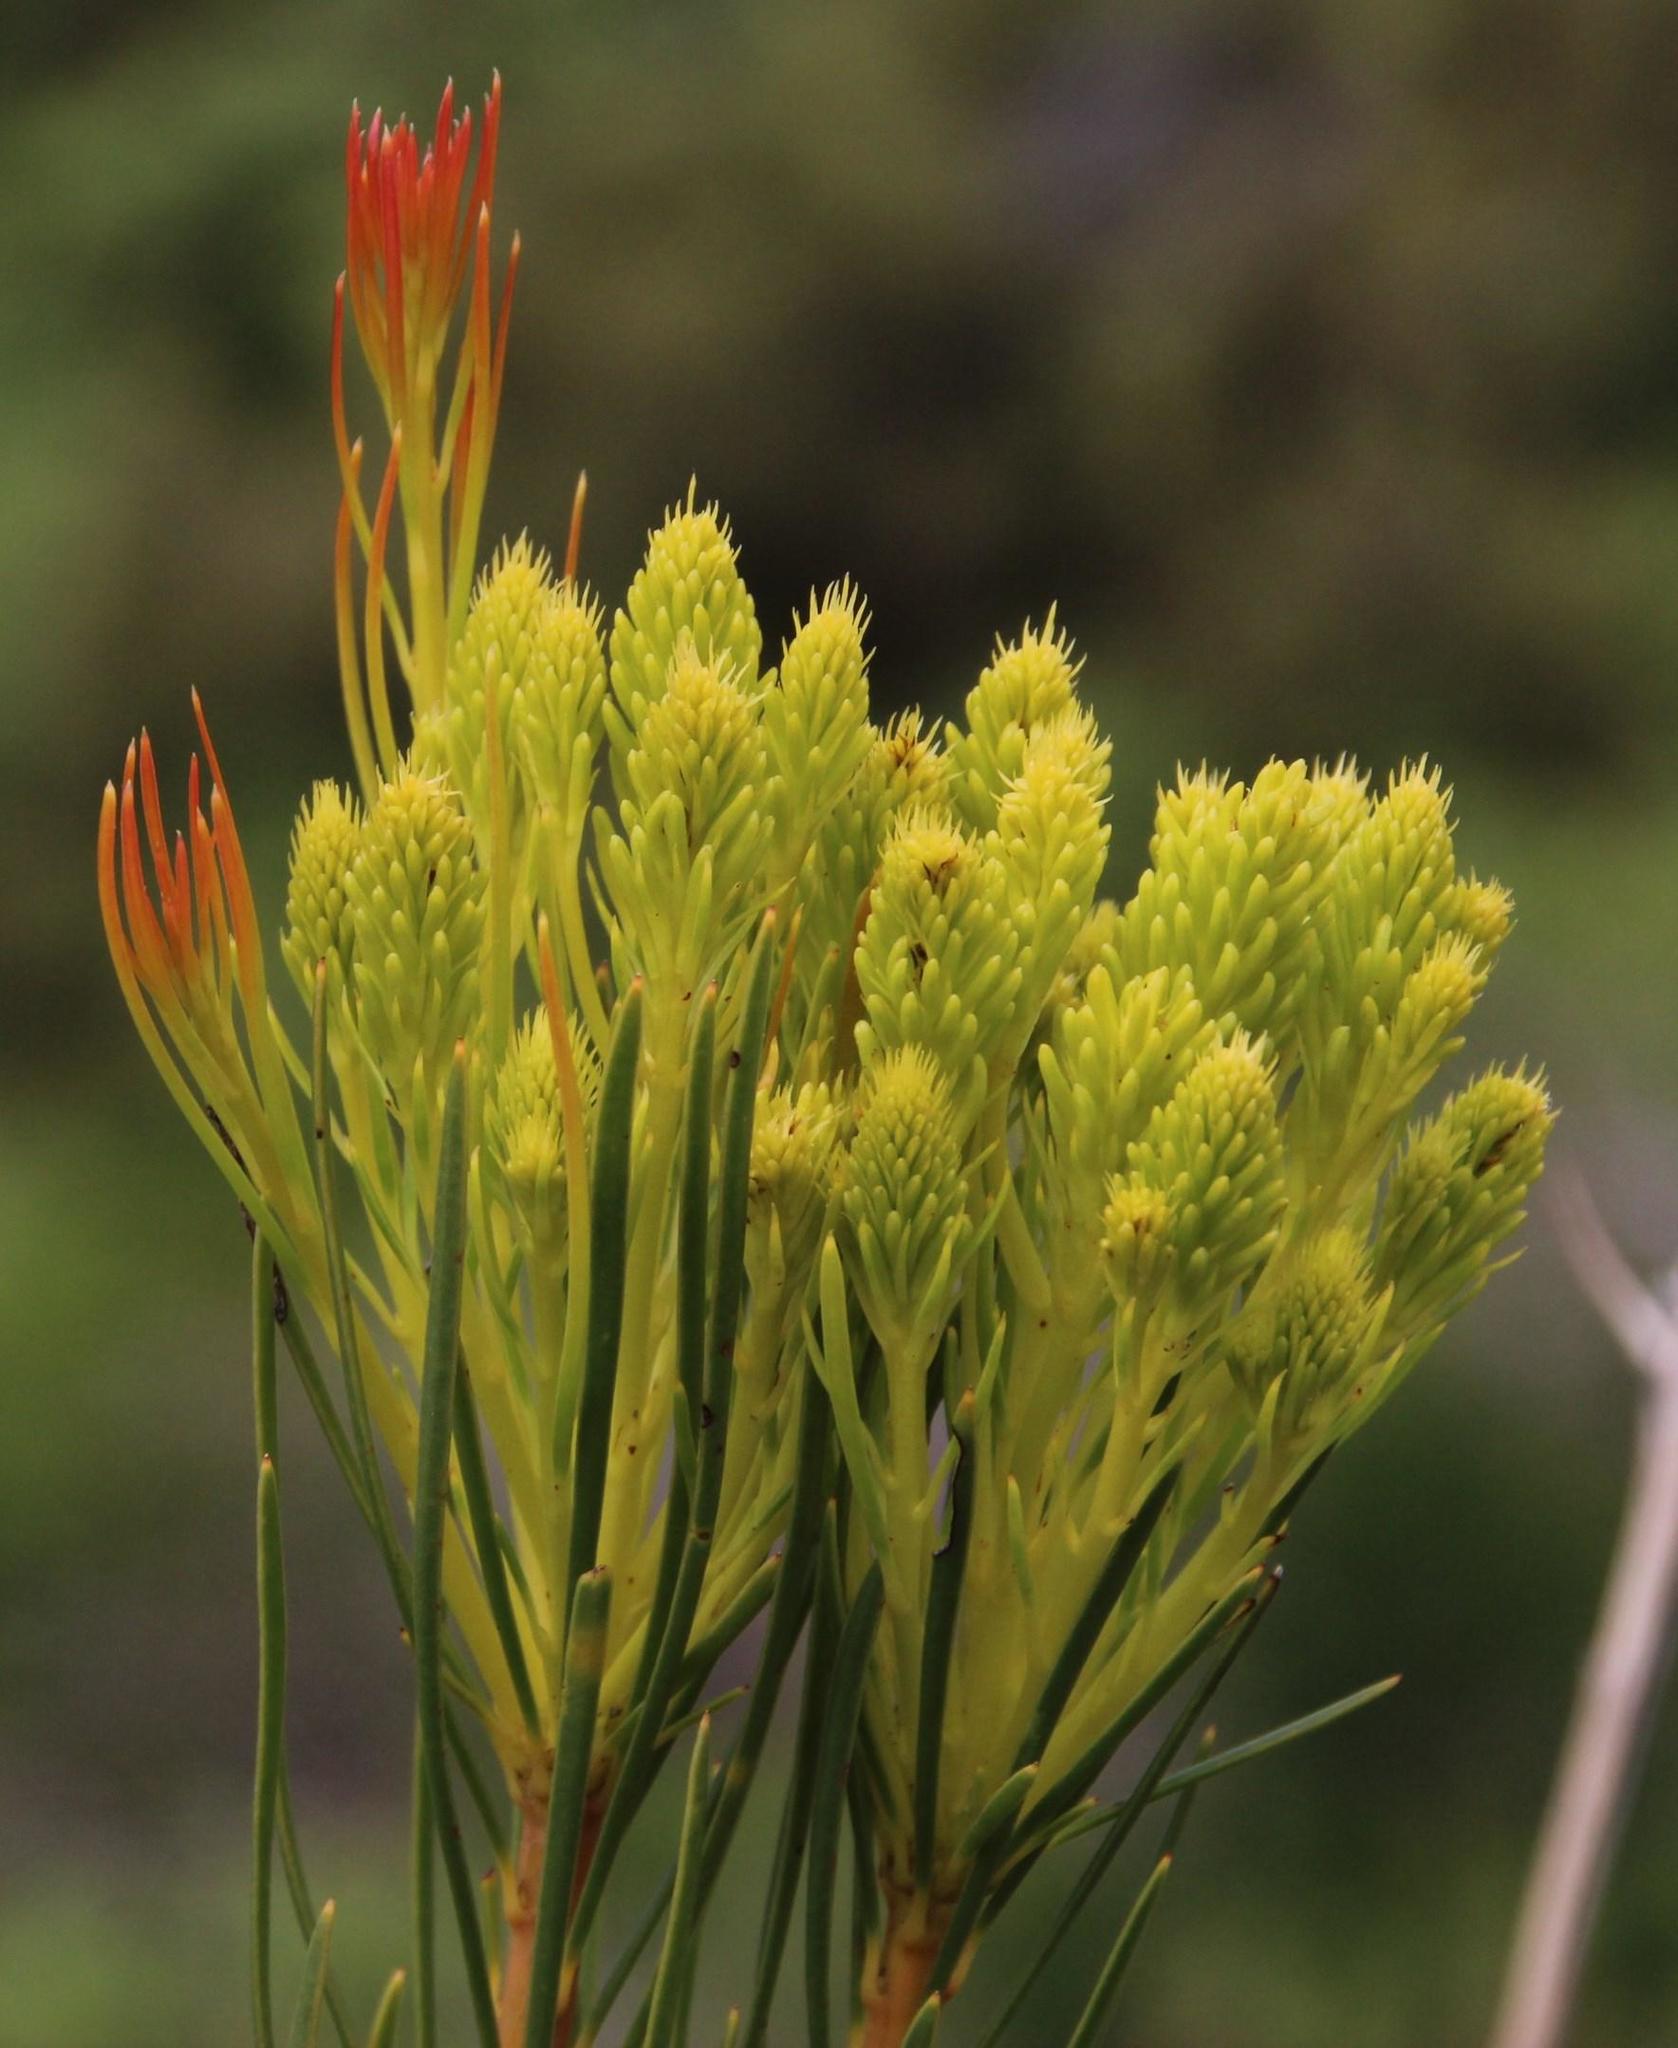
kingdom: Plantae
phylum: Tracheophyta
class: Magnoliopsida
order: Proteales
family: Proteaceae
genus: Aulax
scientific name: Aulax pallasia
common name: Needle-leaf featherbush
